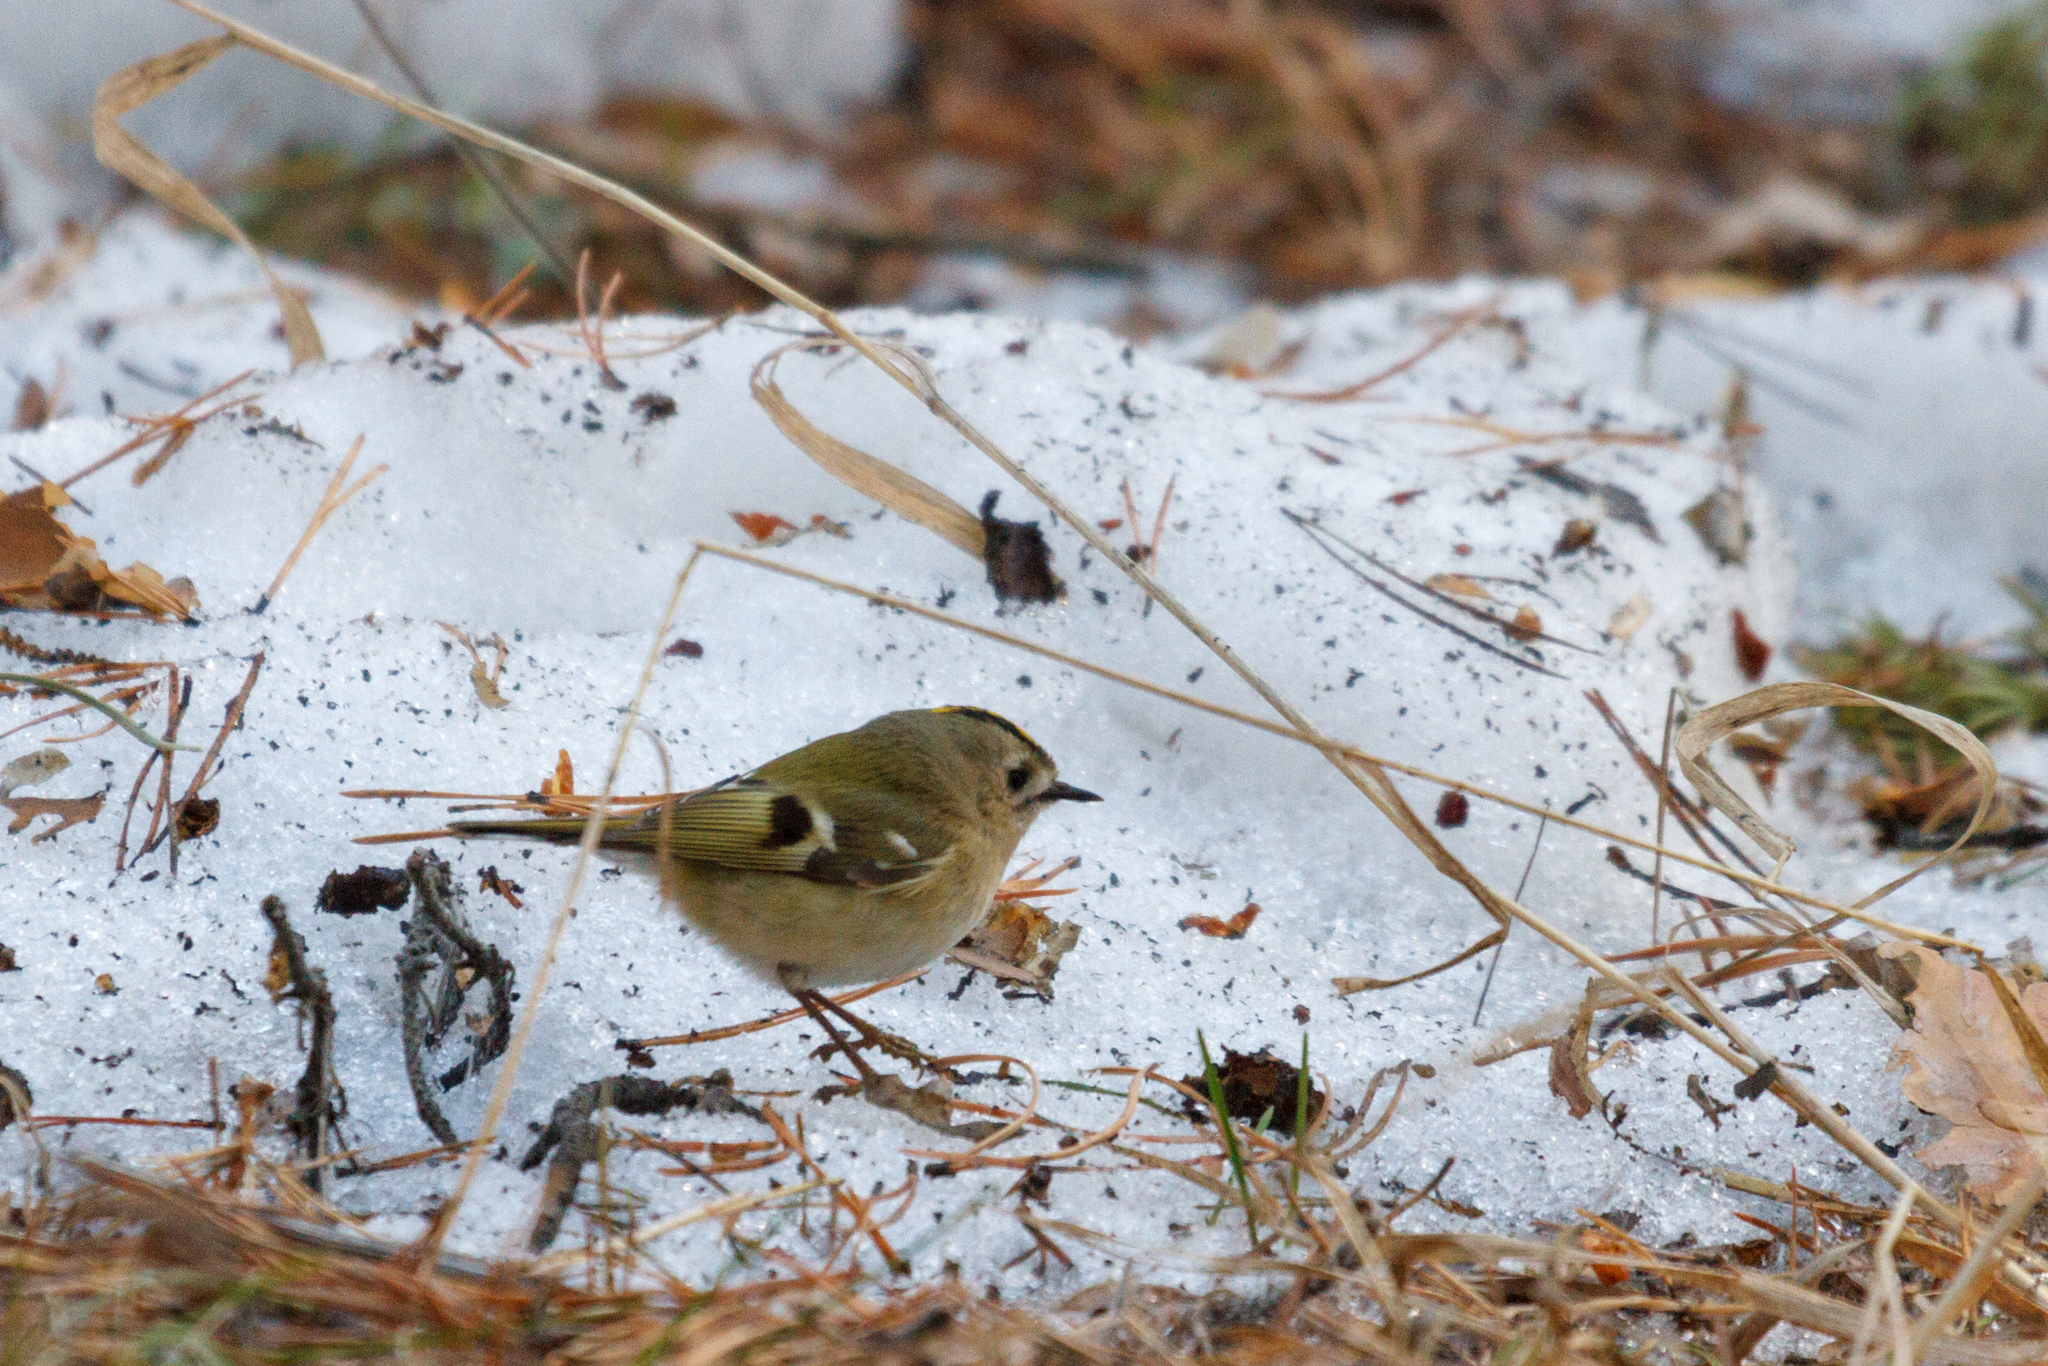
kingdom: Animalia
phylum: Chordata
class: Aves
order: Passeriformes
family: Regulidae
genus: Regulus
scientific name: Regulus regulus
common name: Goldcrest
